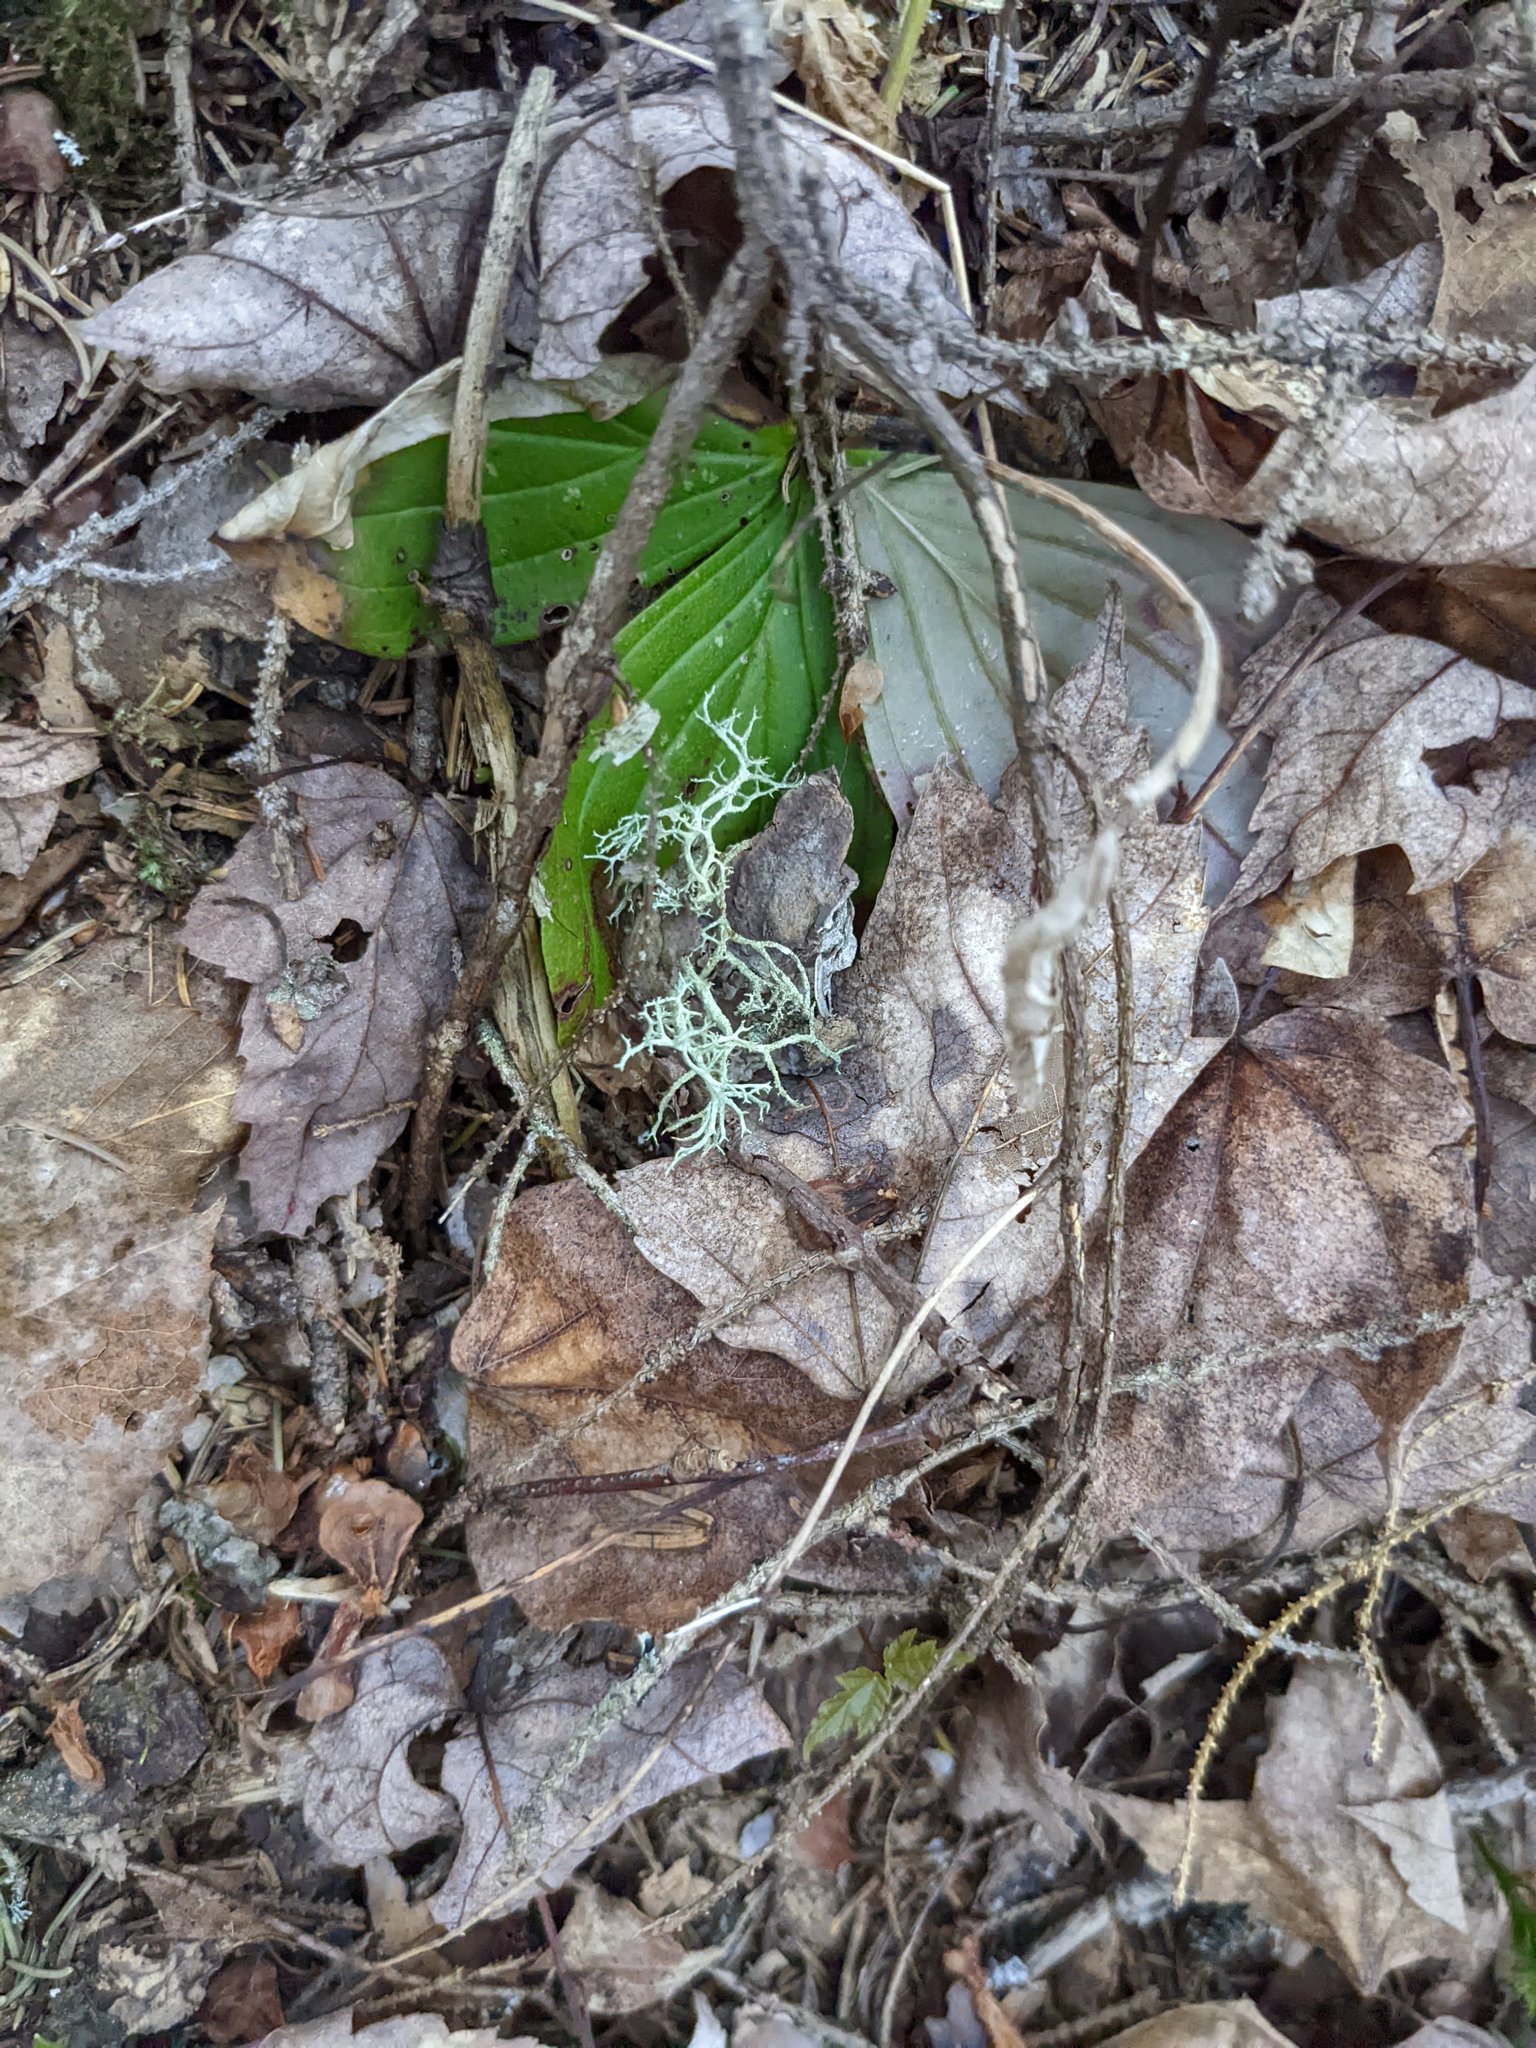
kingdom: Plantae
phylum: Tracheophyta
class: Magnoliopsida
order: Cornales
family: Cornaceae
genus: Cornus
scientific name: Cornus canadensis
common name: Creeping dogwood
